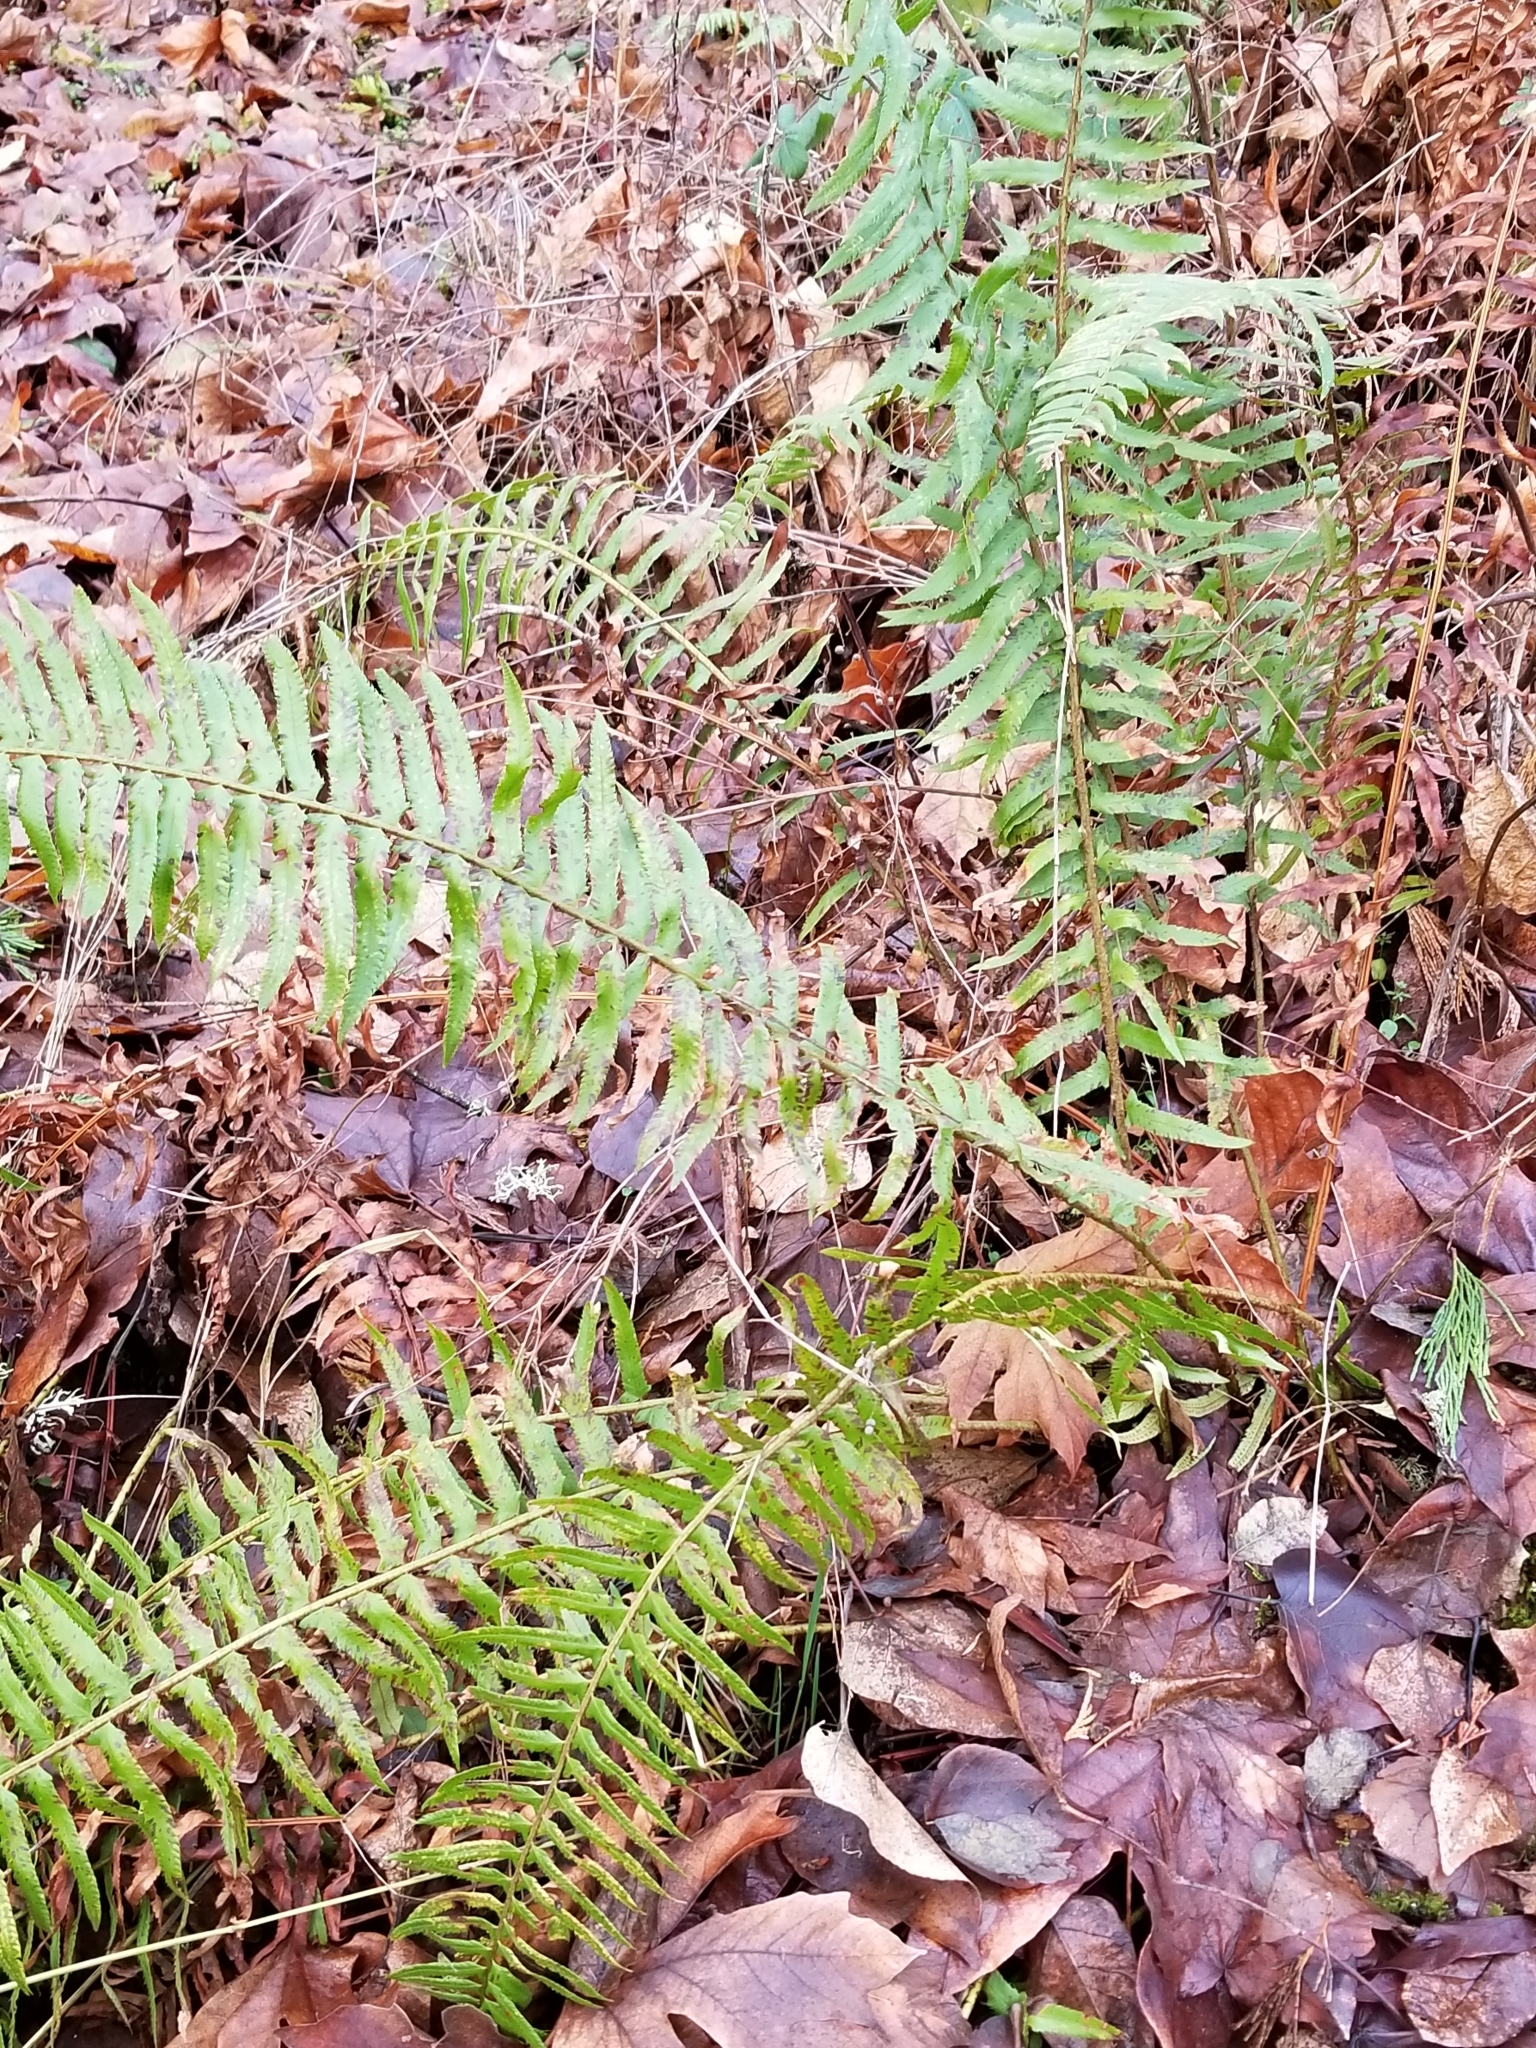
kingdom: Plantae
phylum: Tracheophyta
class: Polypodiopsida
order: Polypodiales
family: Dryopteridaceae
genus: Polystichum
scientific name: Polystichum munitum
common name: Western sword-fern
